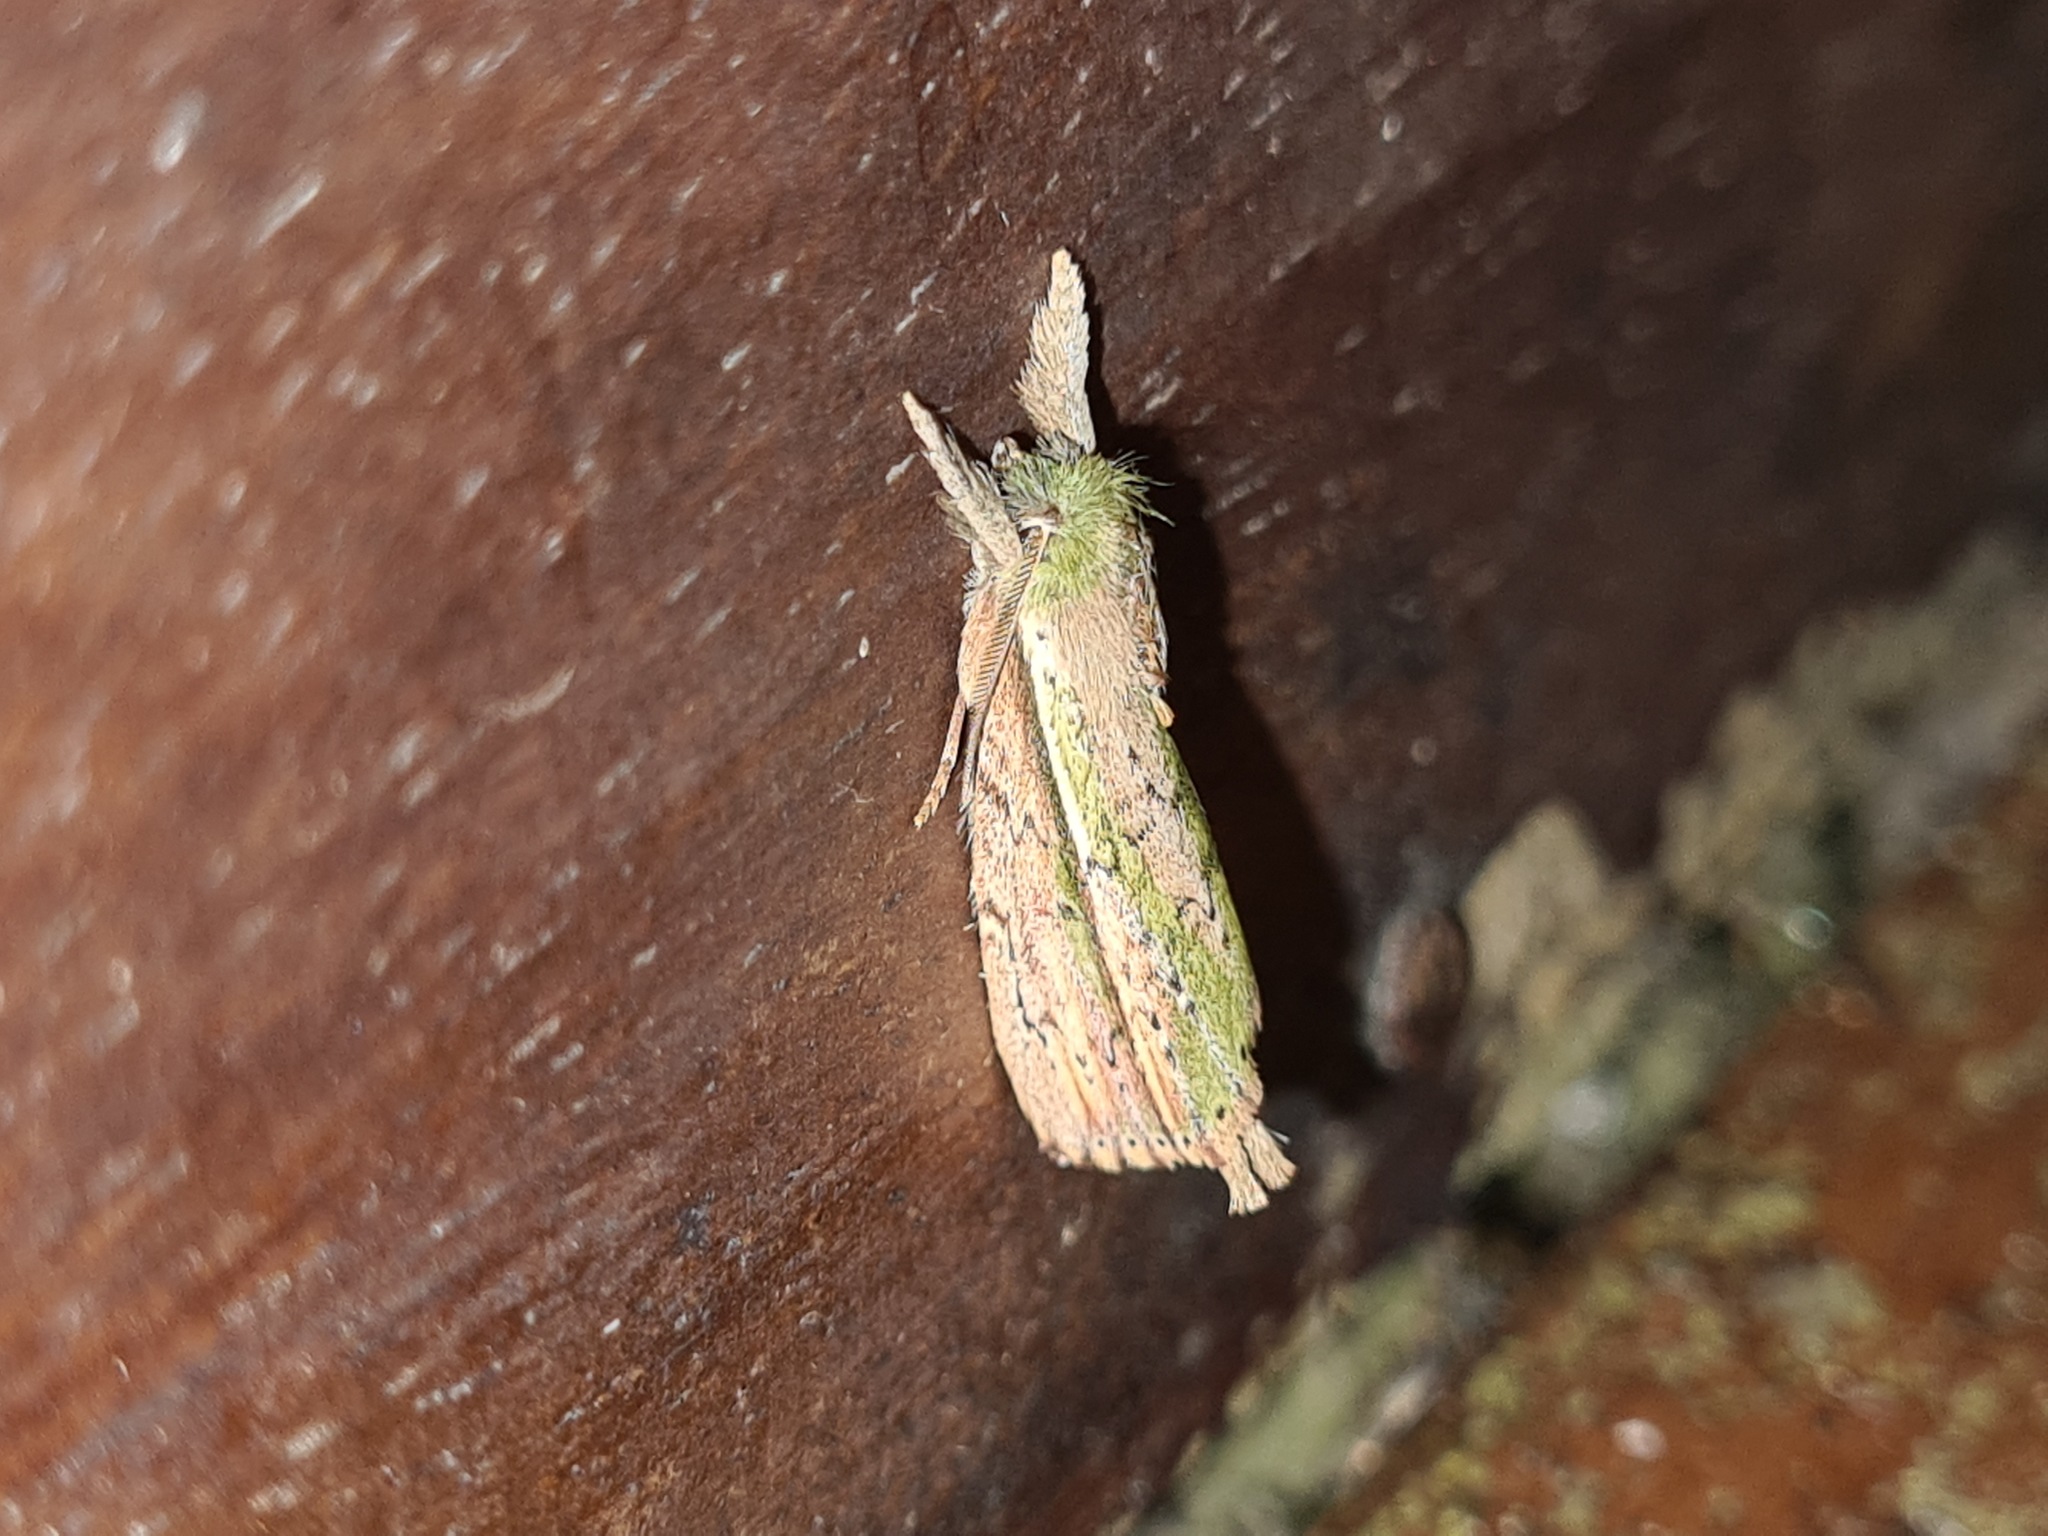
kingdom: Animalia
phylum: Arthropoda
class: Insecta
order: Lepidoptera
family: Notodontidae
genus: Heorta
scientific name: Heorta pulchra
